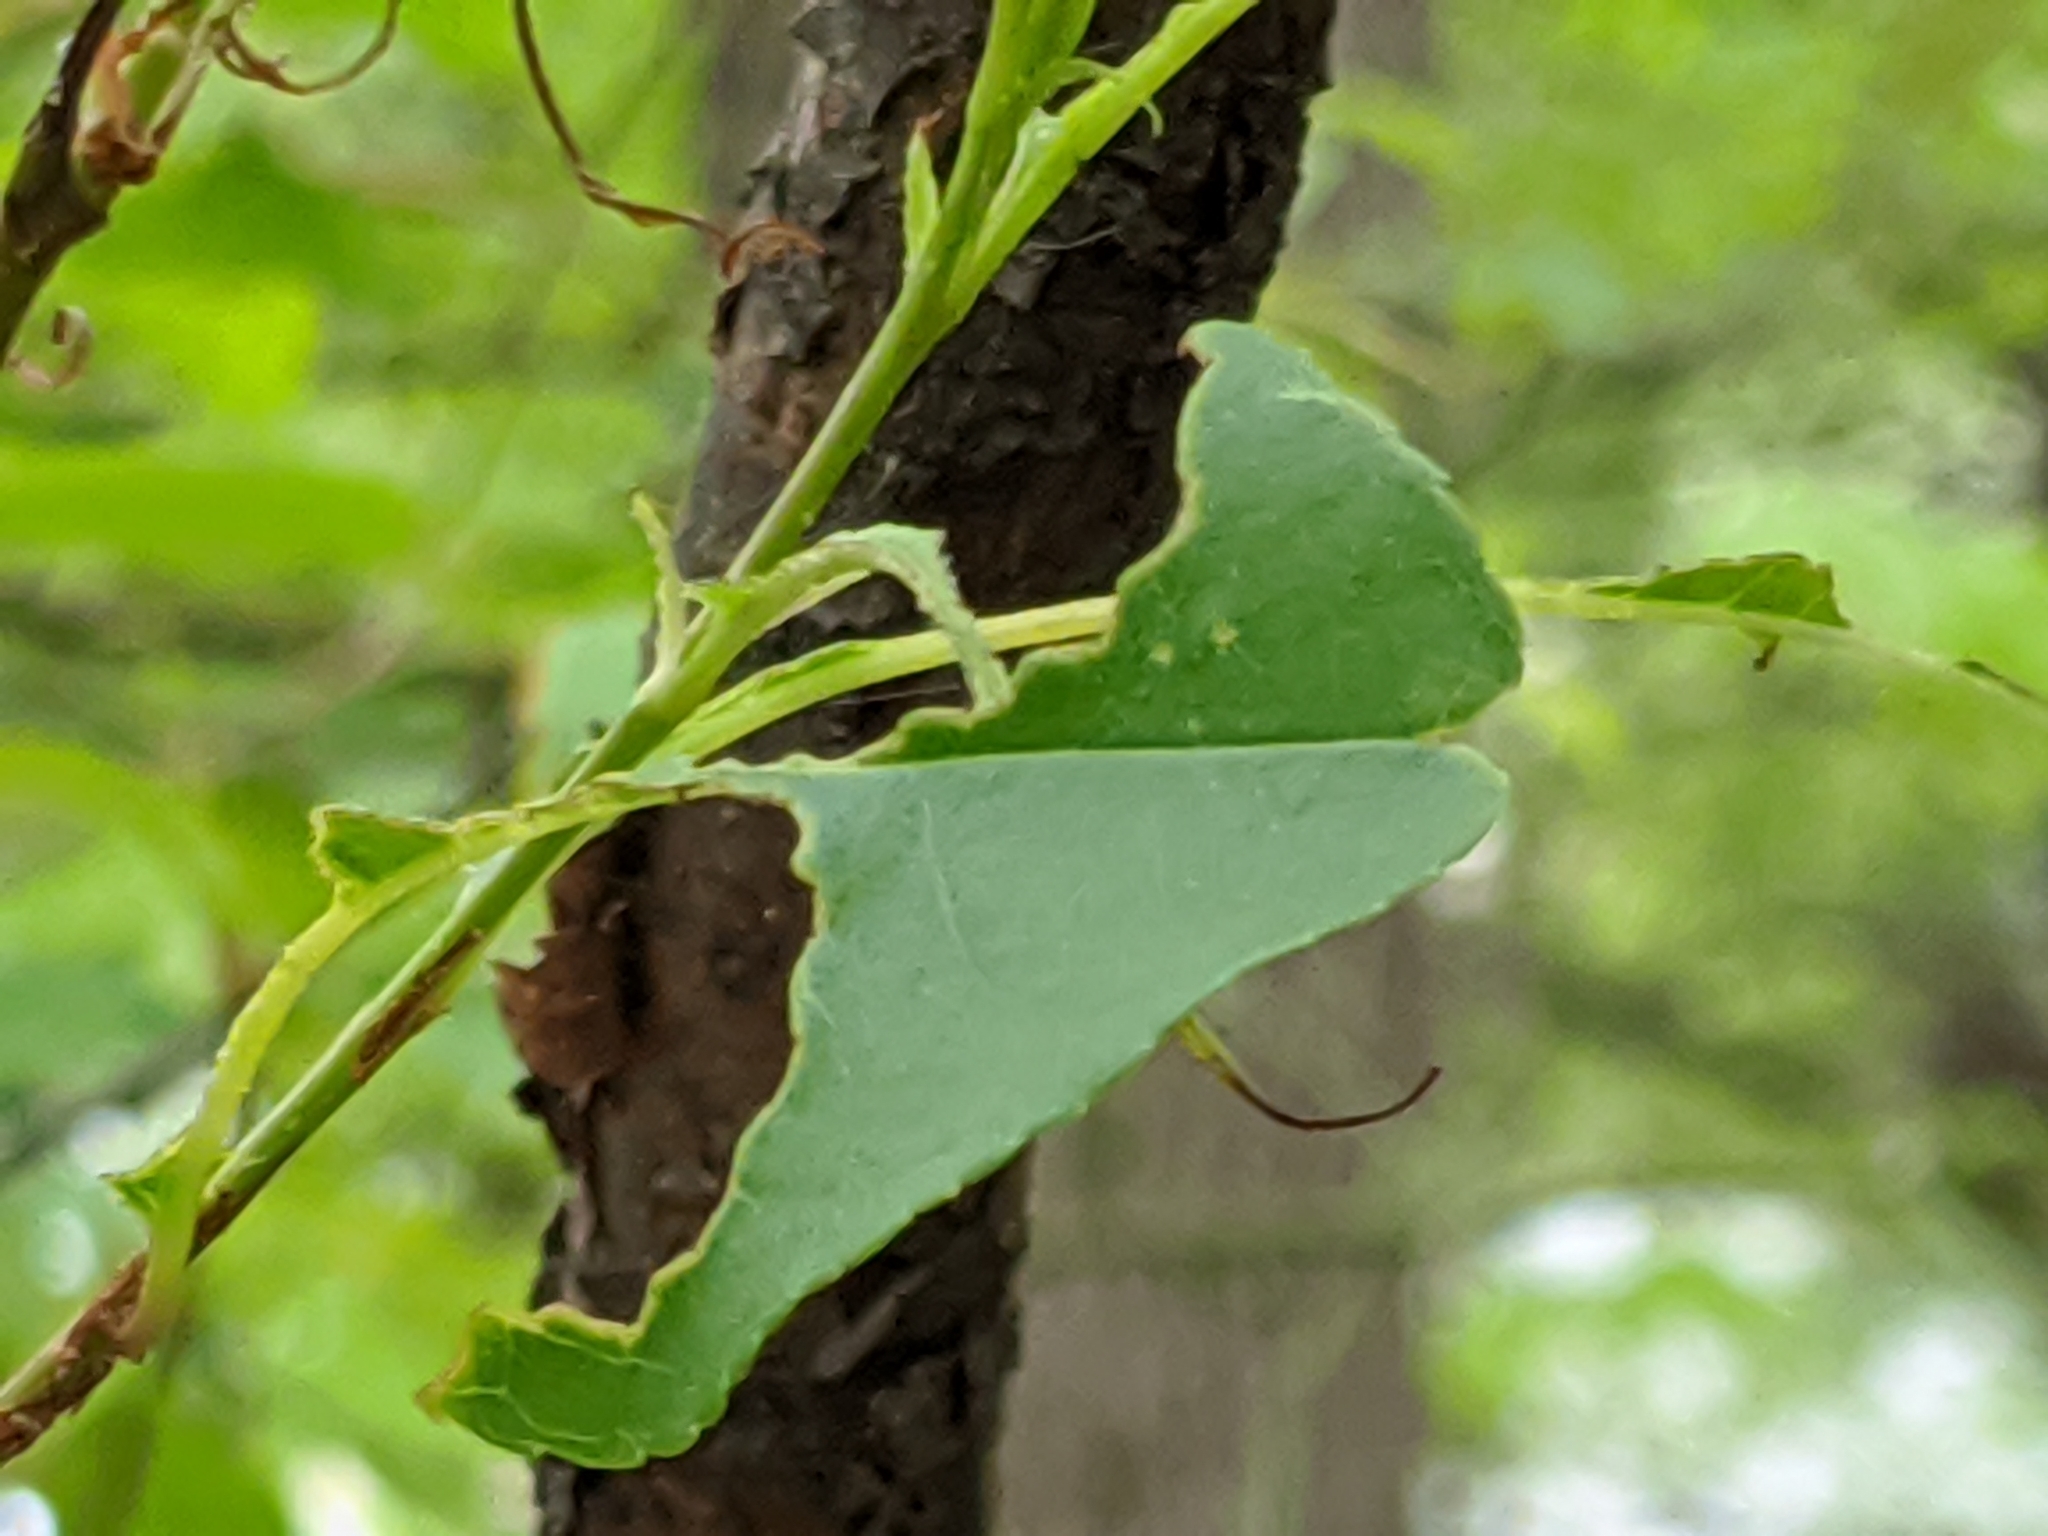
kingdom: Animalia
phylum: Arthropoda
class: Insecta
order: Lepidoptera
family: Lasiocampidae
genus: Malacosoma
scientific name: Malacosoma americana
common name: Eastern tent caterpillar moth
